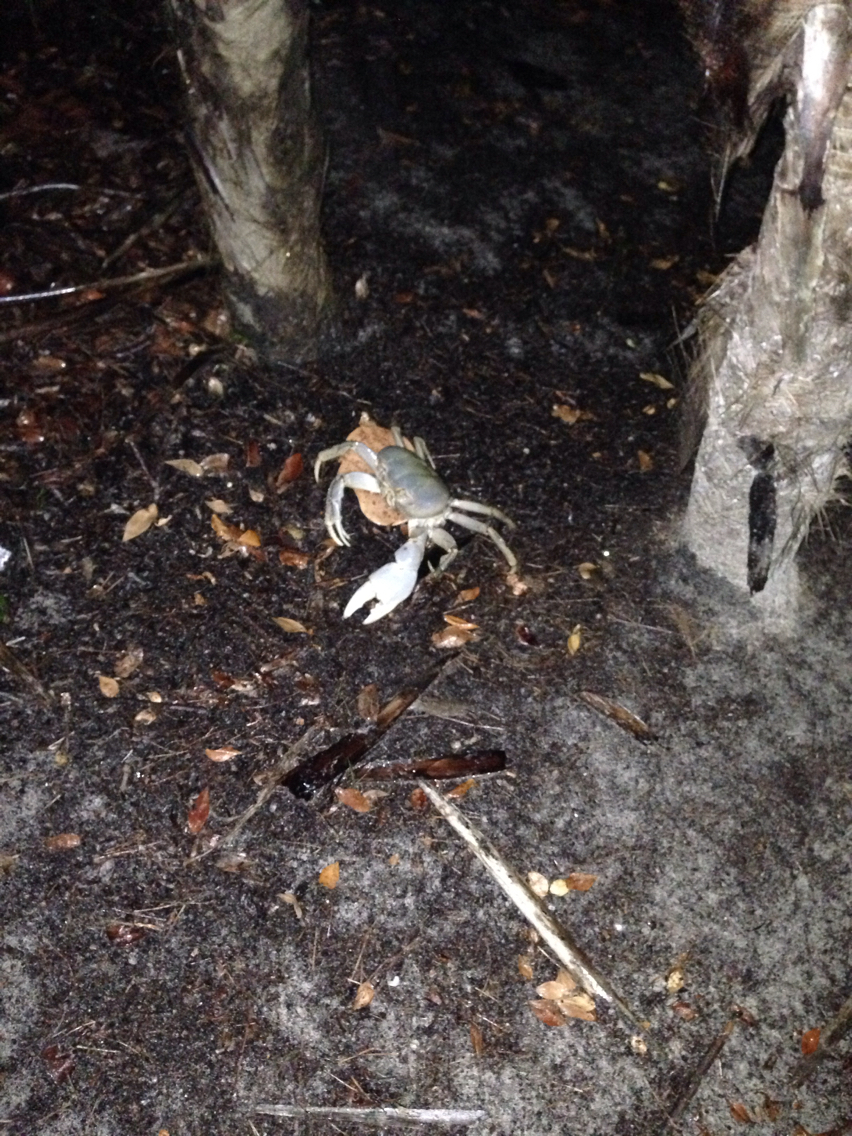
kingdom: Animalia
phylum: Arthropoda
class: Malacostraca
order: Decapoda
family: Gecarcinidae
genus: Cardisoma
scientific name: Cardisoma guanhumi
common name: Great land crab
